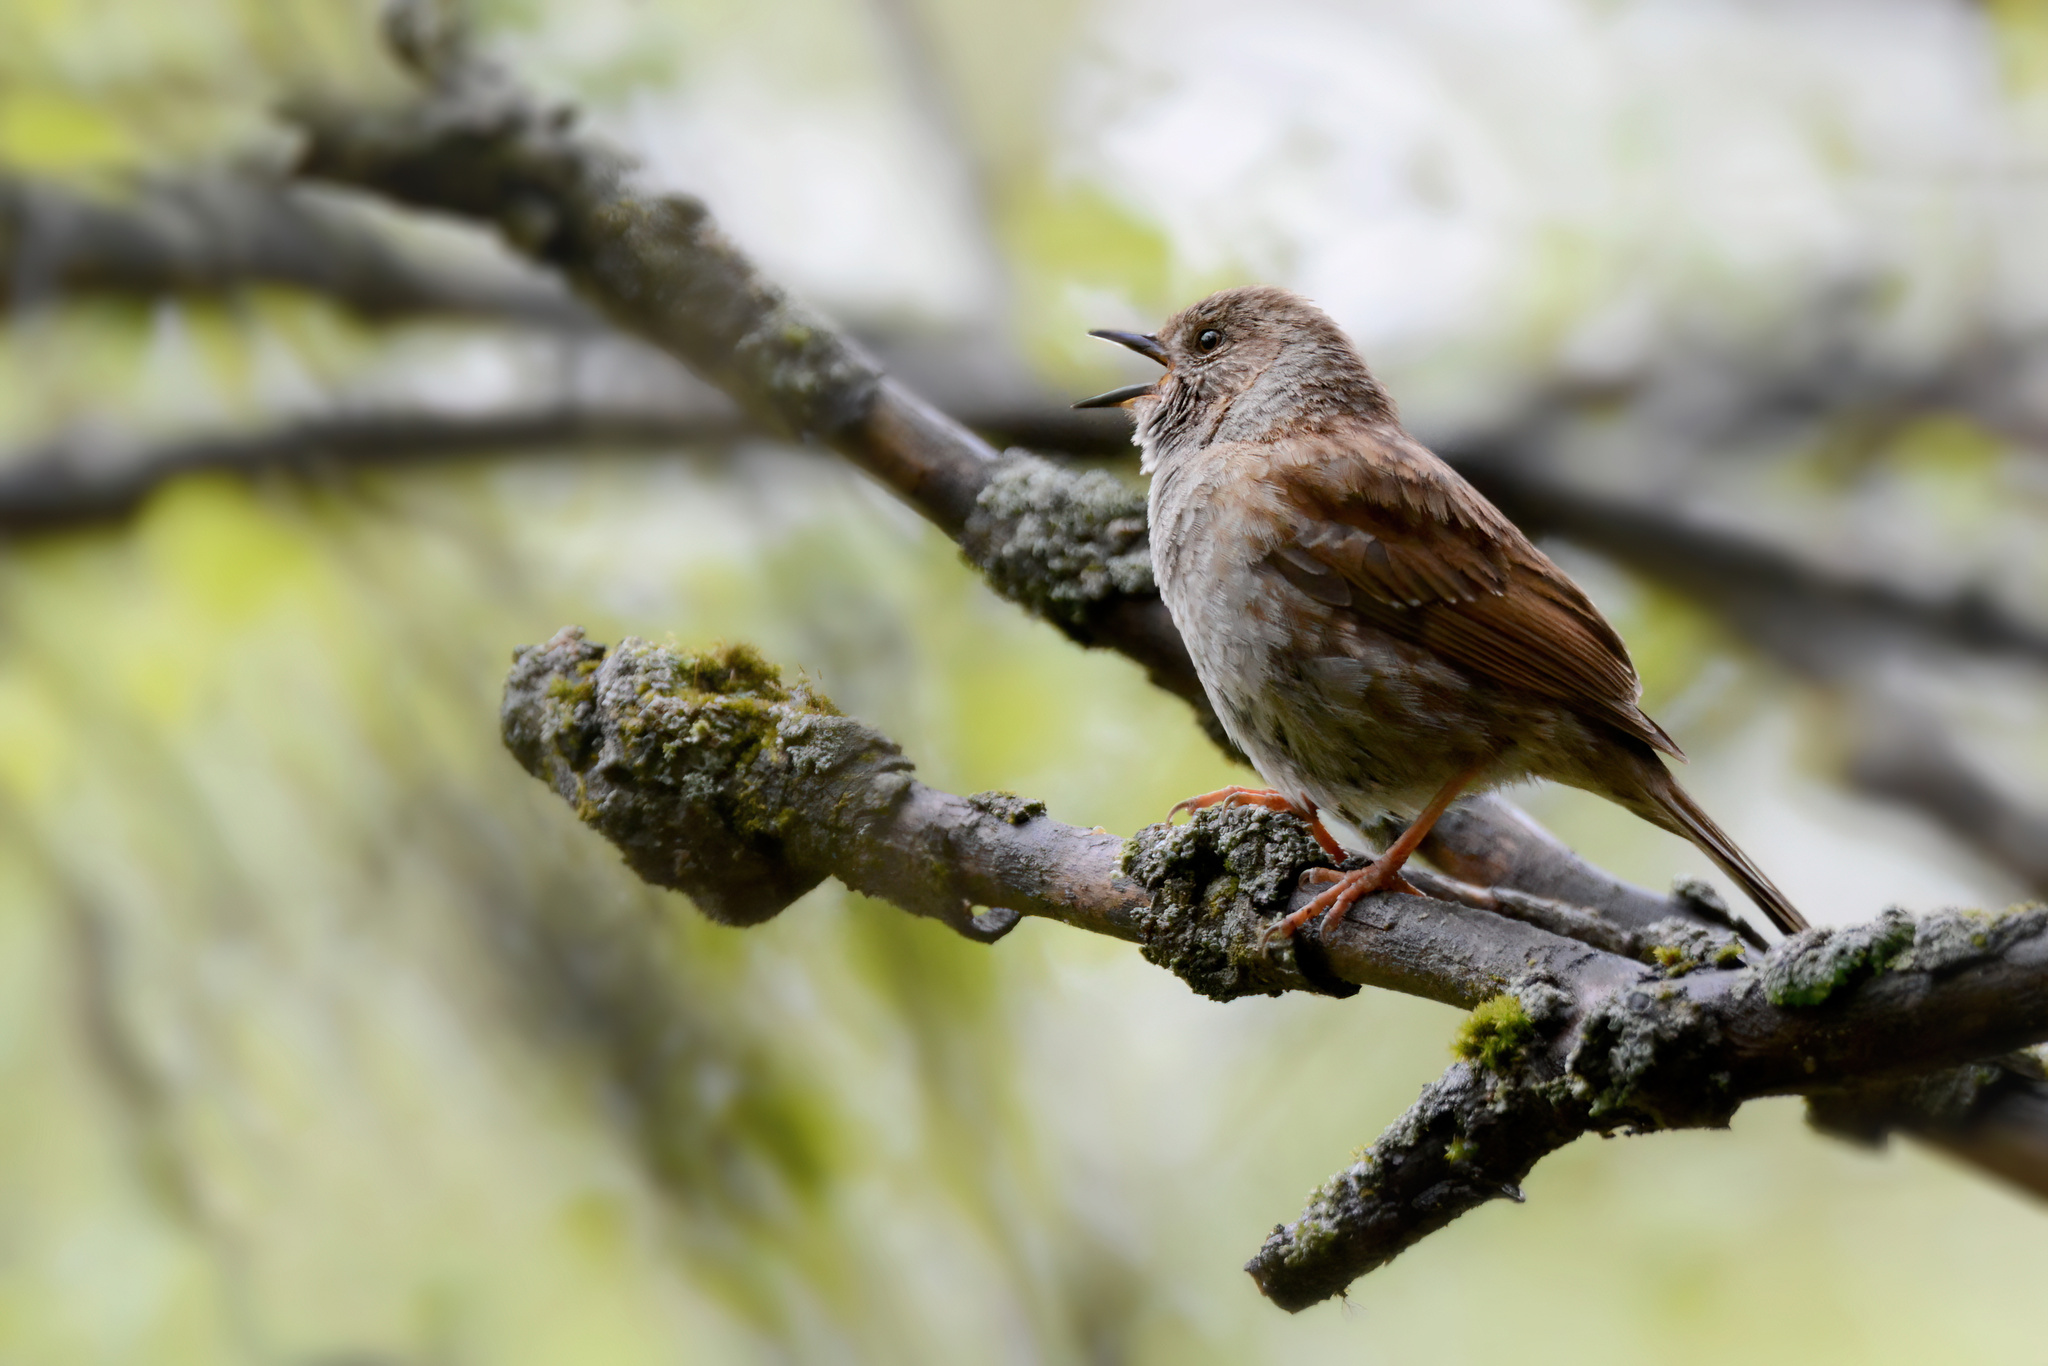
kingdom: Animalia
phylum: Chordata
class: Aves
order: Passeriformes
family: Prunellidae
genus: Prunella
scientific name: Prunella modularis
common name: Dunnock
